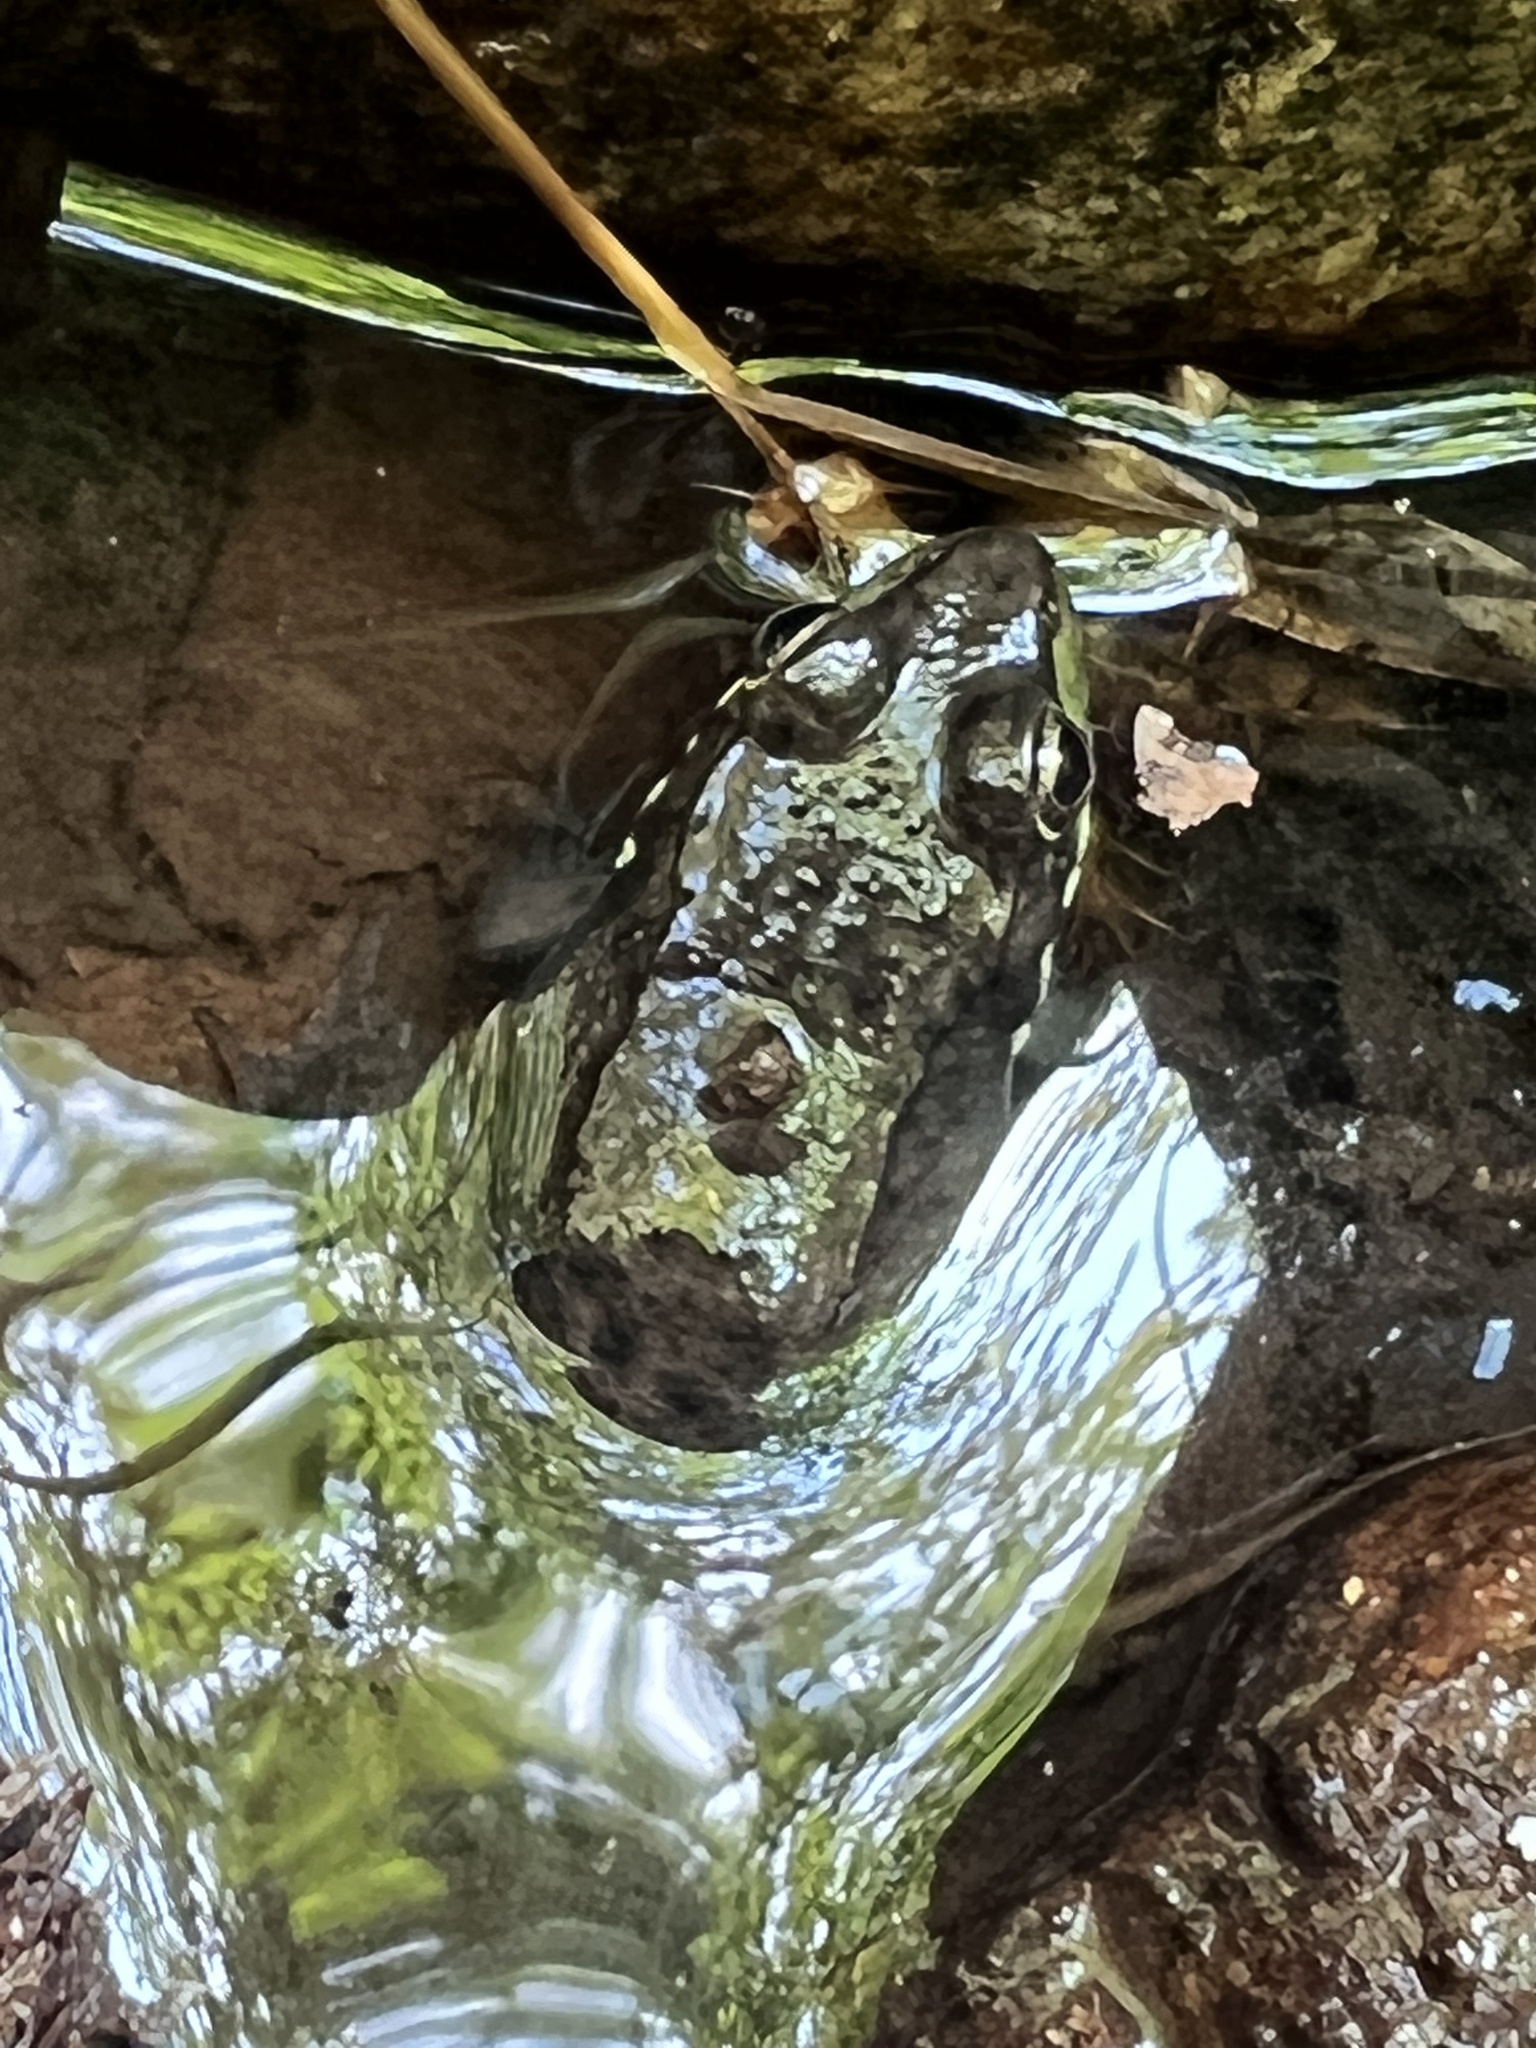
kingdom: Animalia
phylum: Chordata
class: Amphibia
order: Anura
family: Ranidae
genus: Lithobates
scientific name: Lithobates clamitans
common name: Green frog
